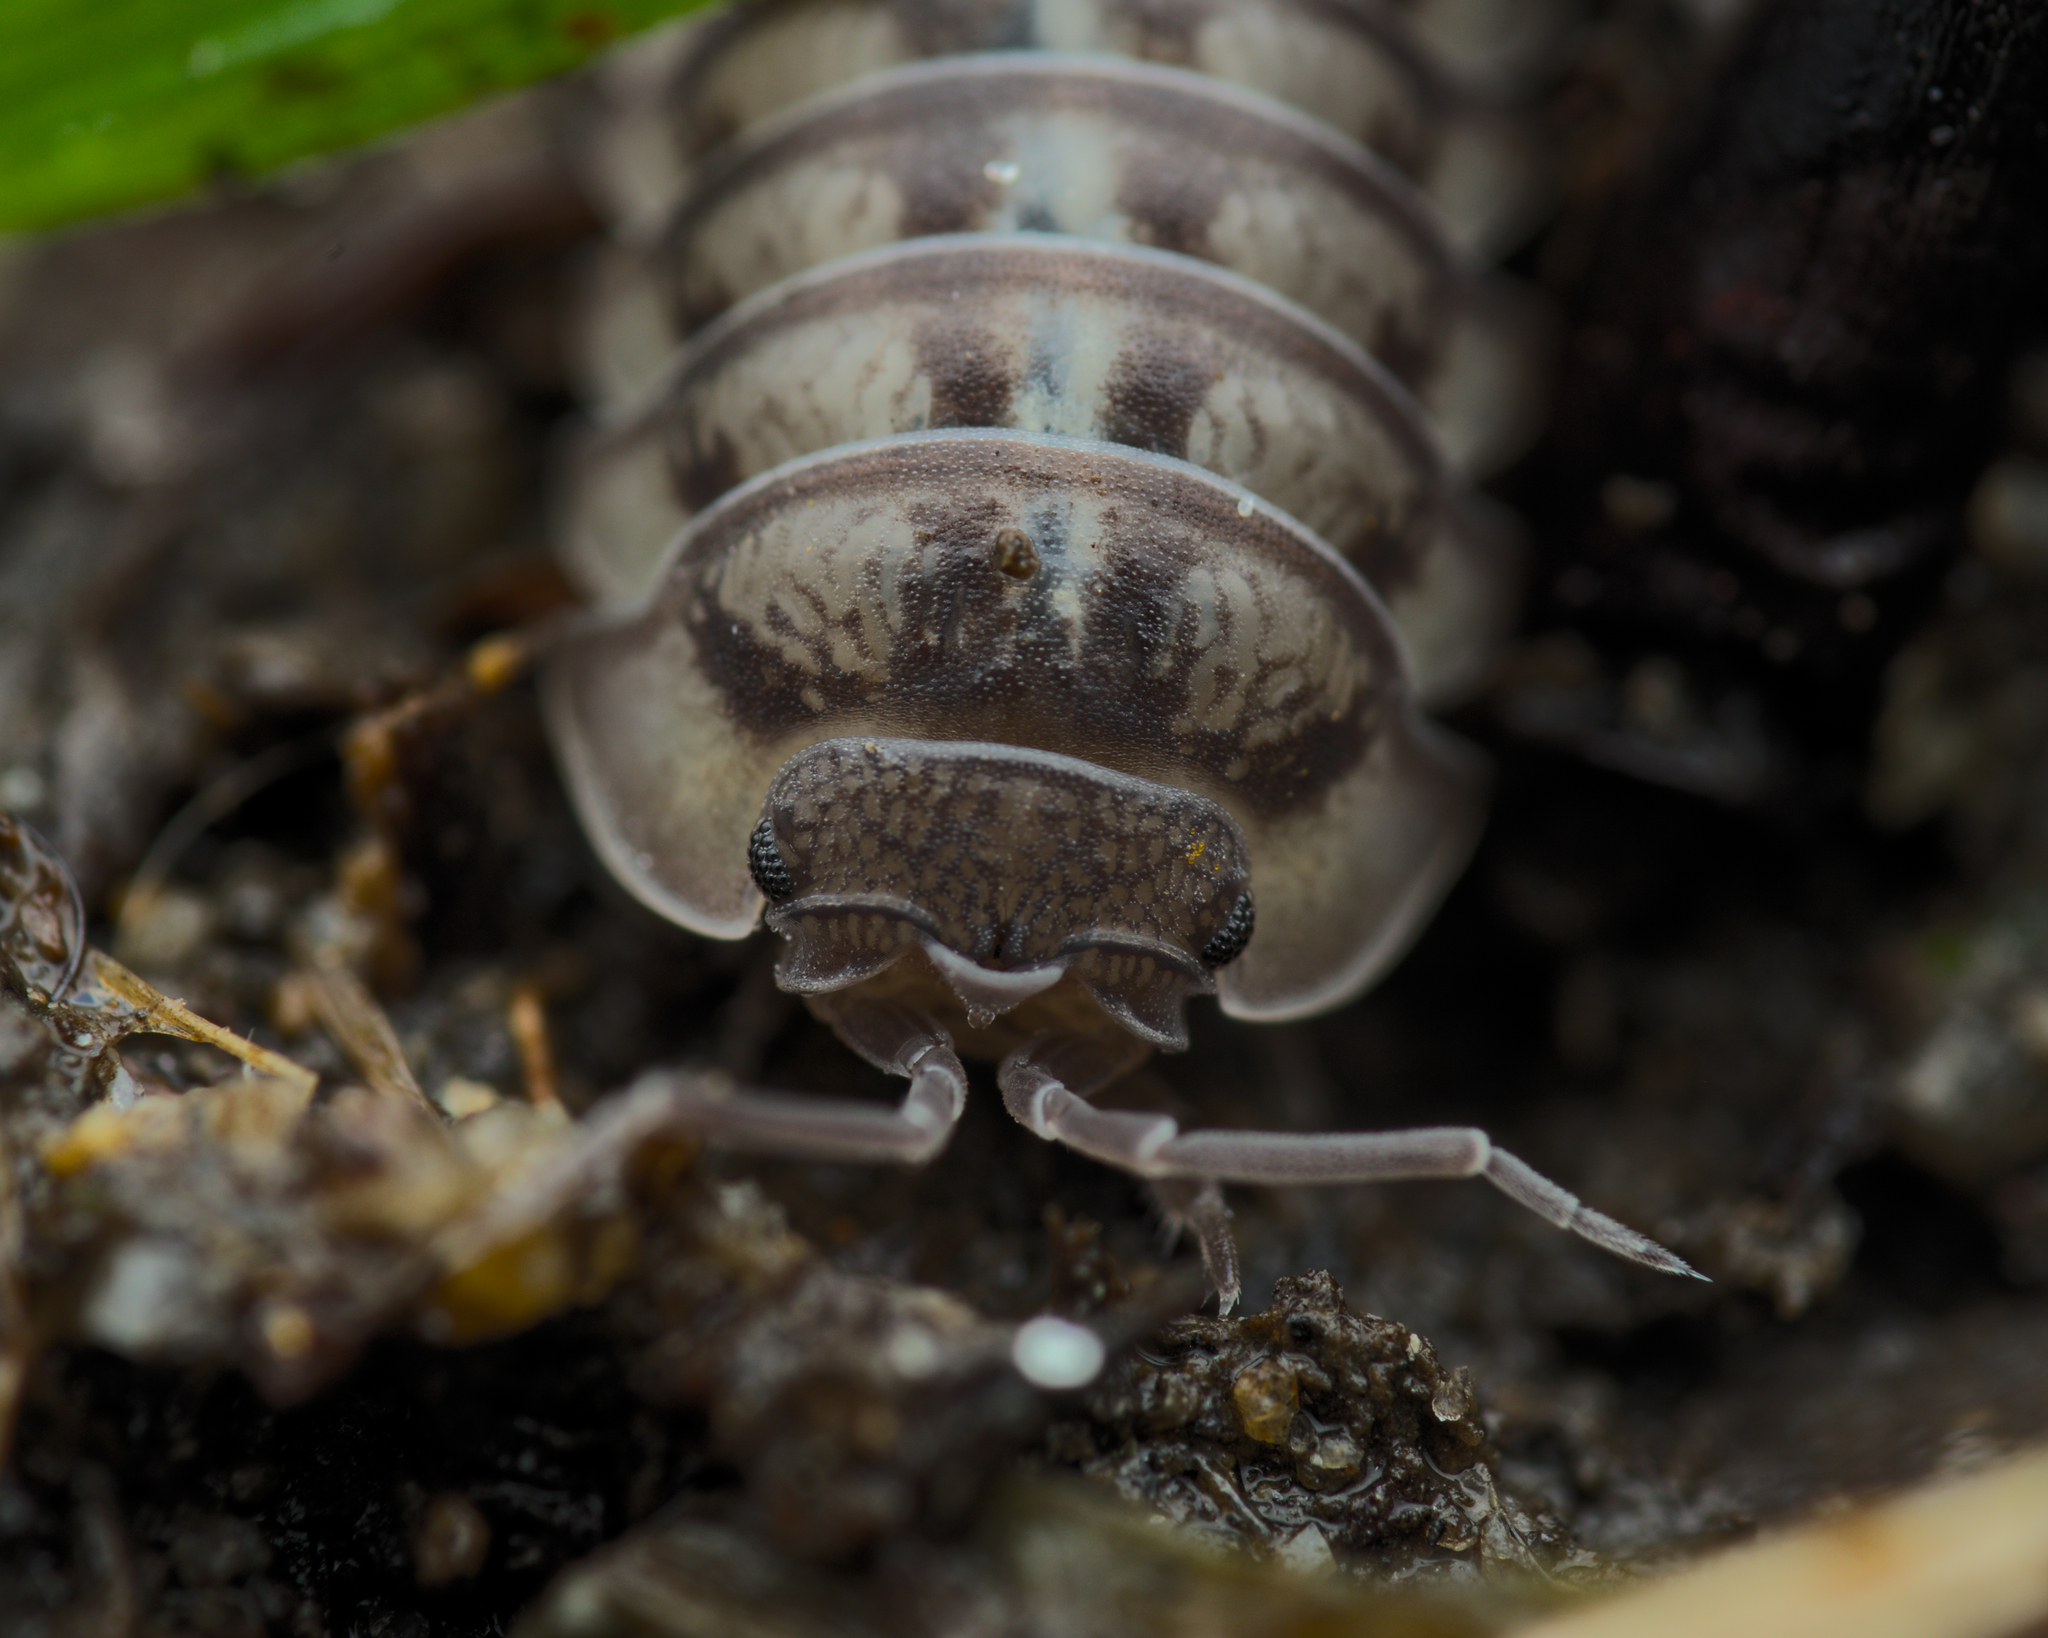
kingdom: Animalia
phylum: Arthropoda
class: Malacostraca
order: Isopoda
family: Armadillidiidae
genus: Armadillidium
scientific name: Armadillidium nasatum
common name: Isopod
